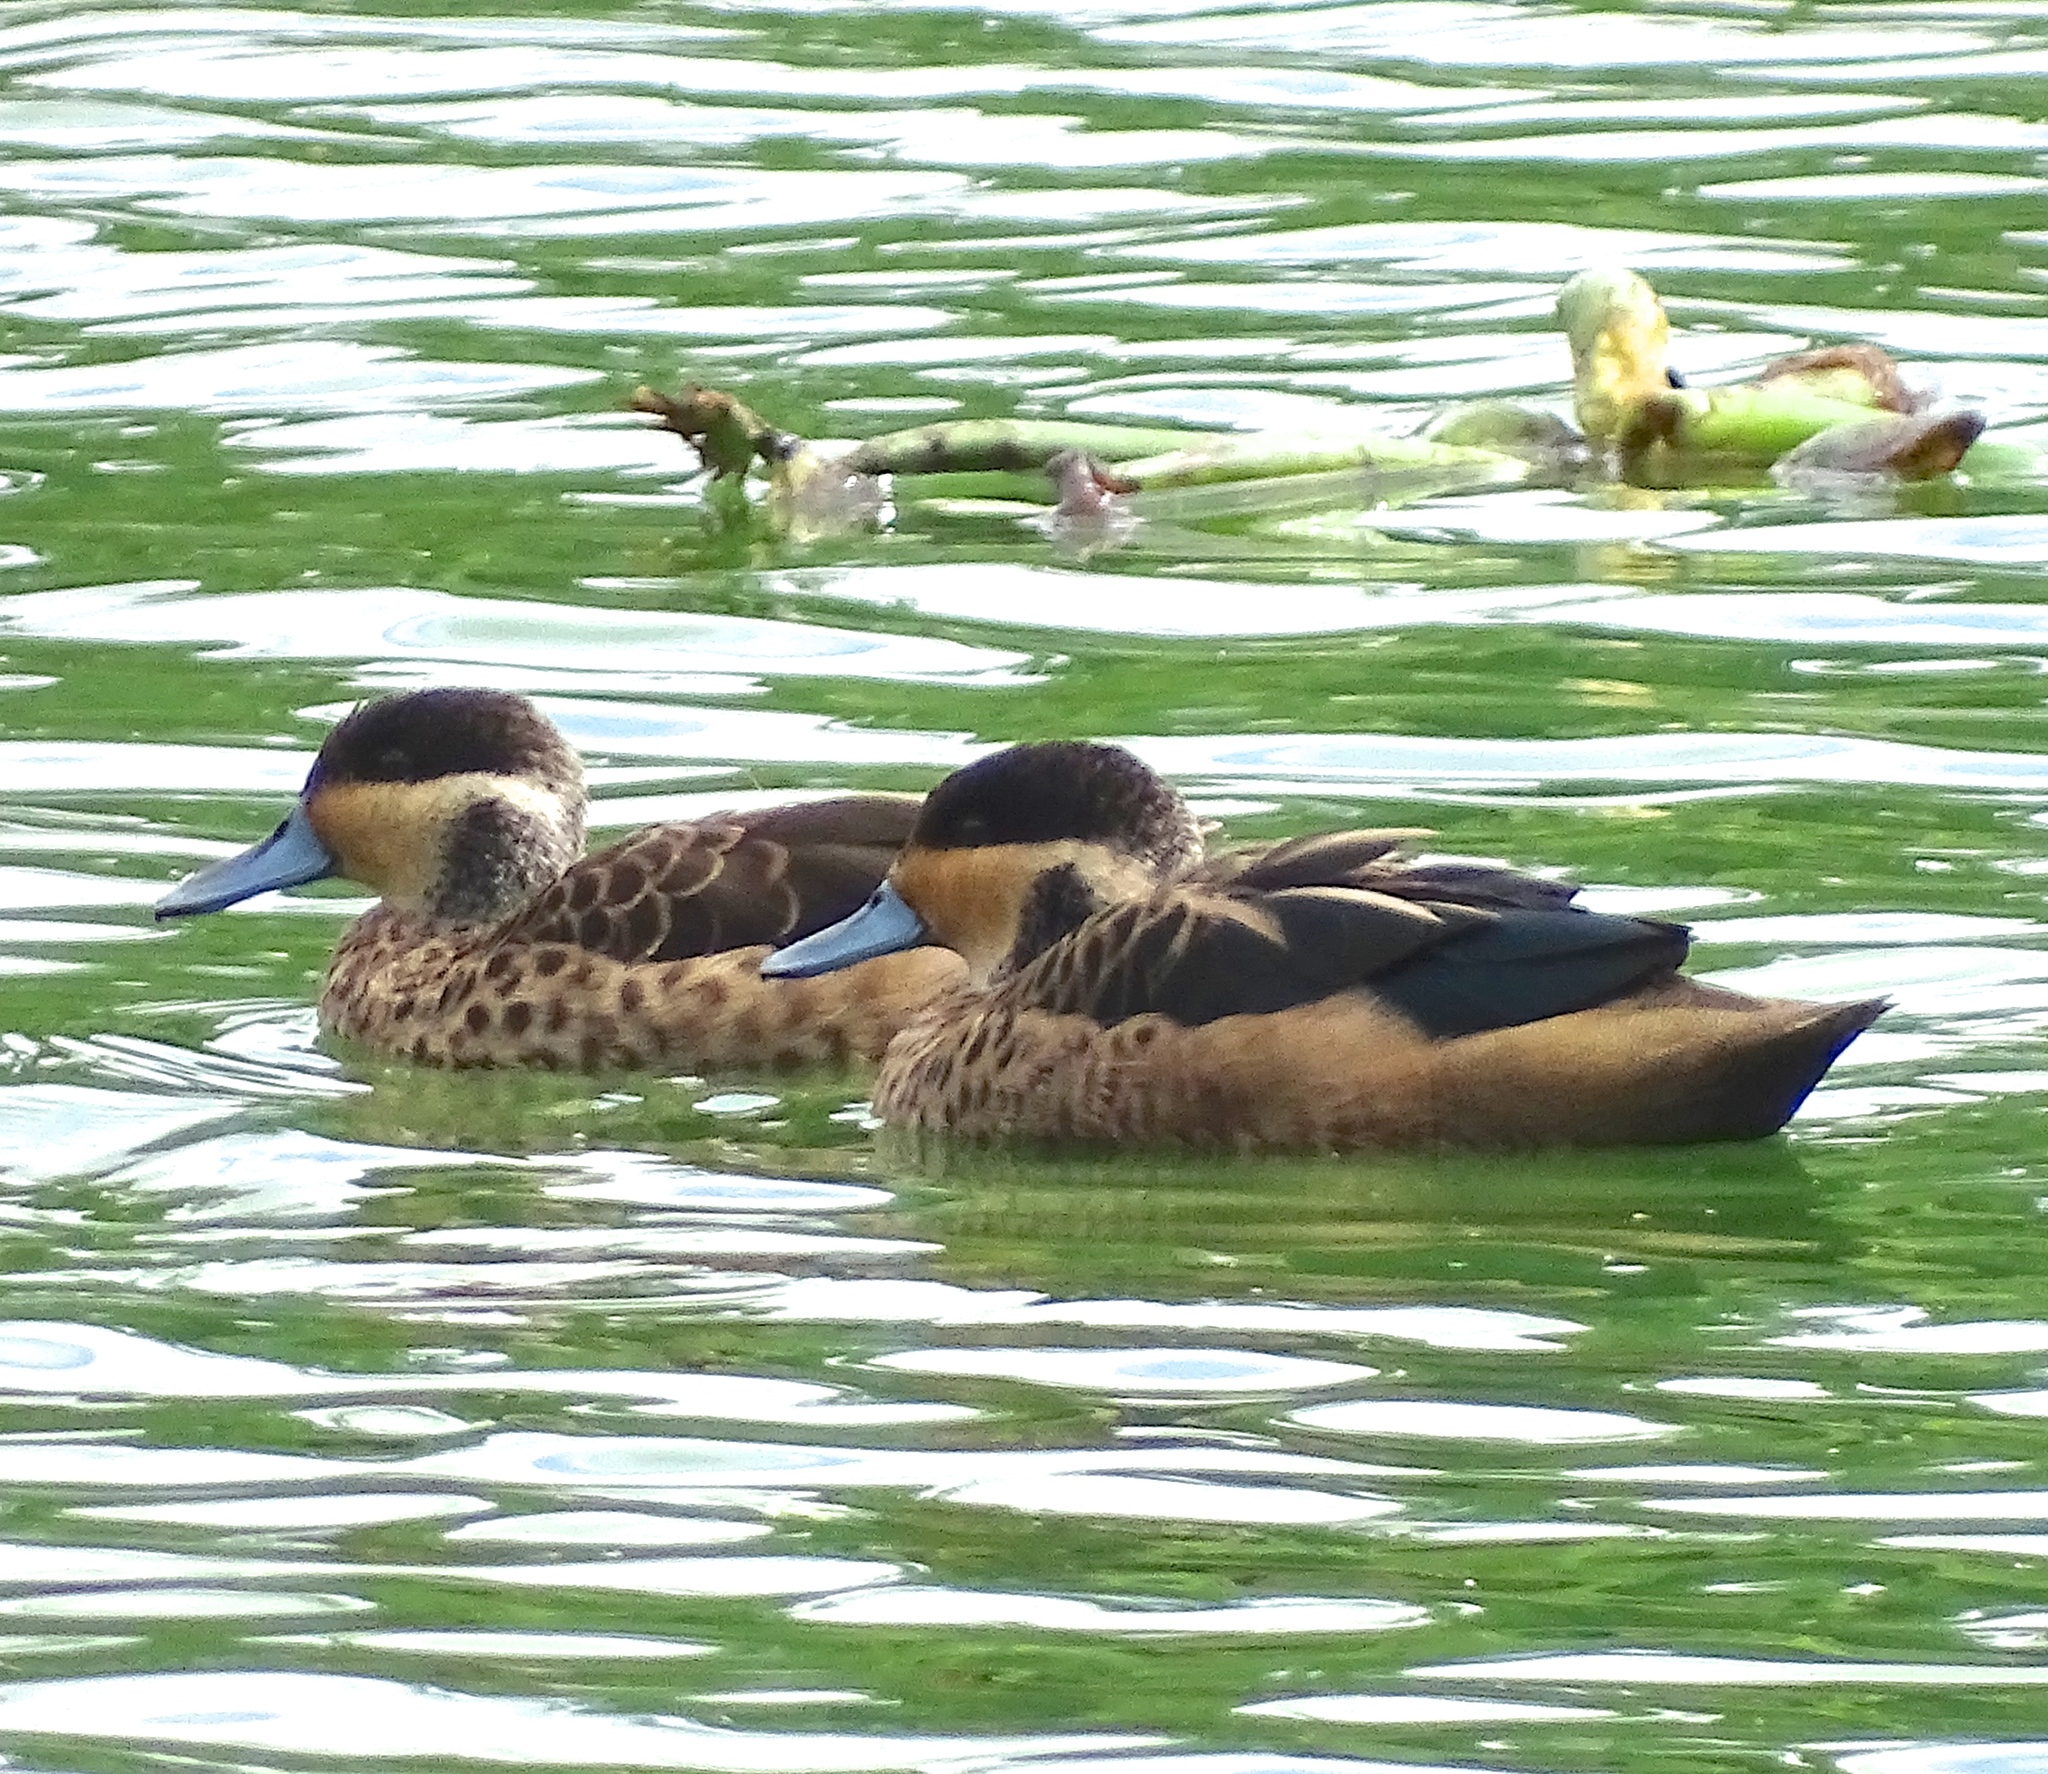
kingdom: Animalia
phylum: Chordata
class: Aves
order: Anseriformes
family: Anatidae
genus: Spatula
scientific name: Spatula hottentota
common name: Blue-billed teal
